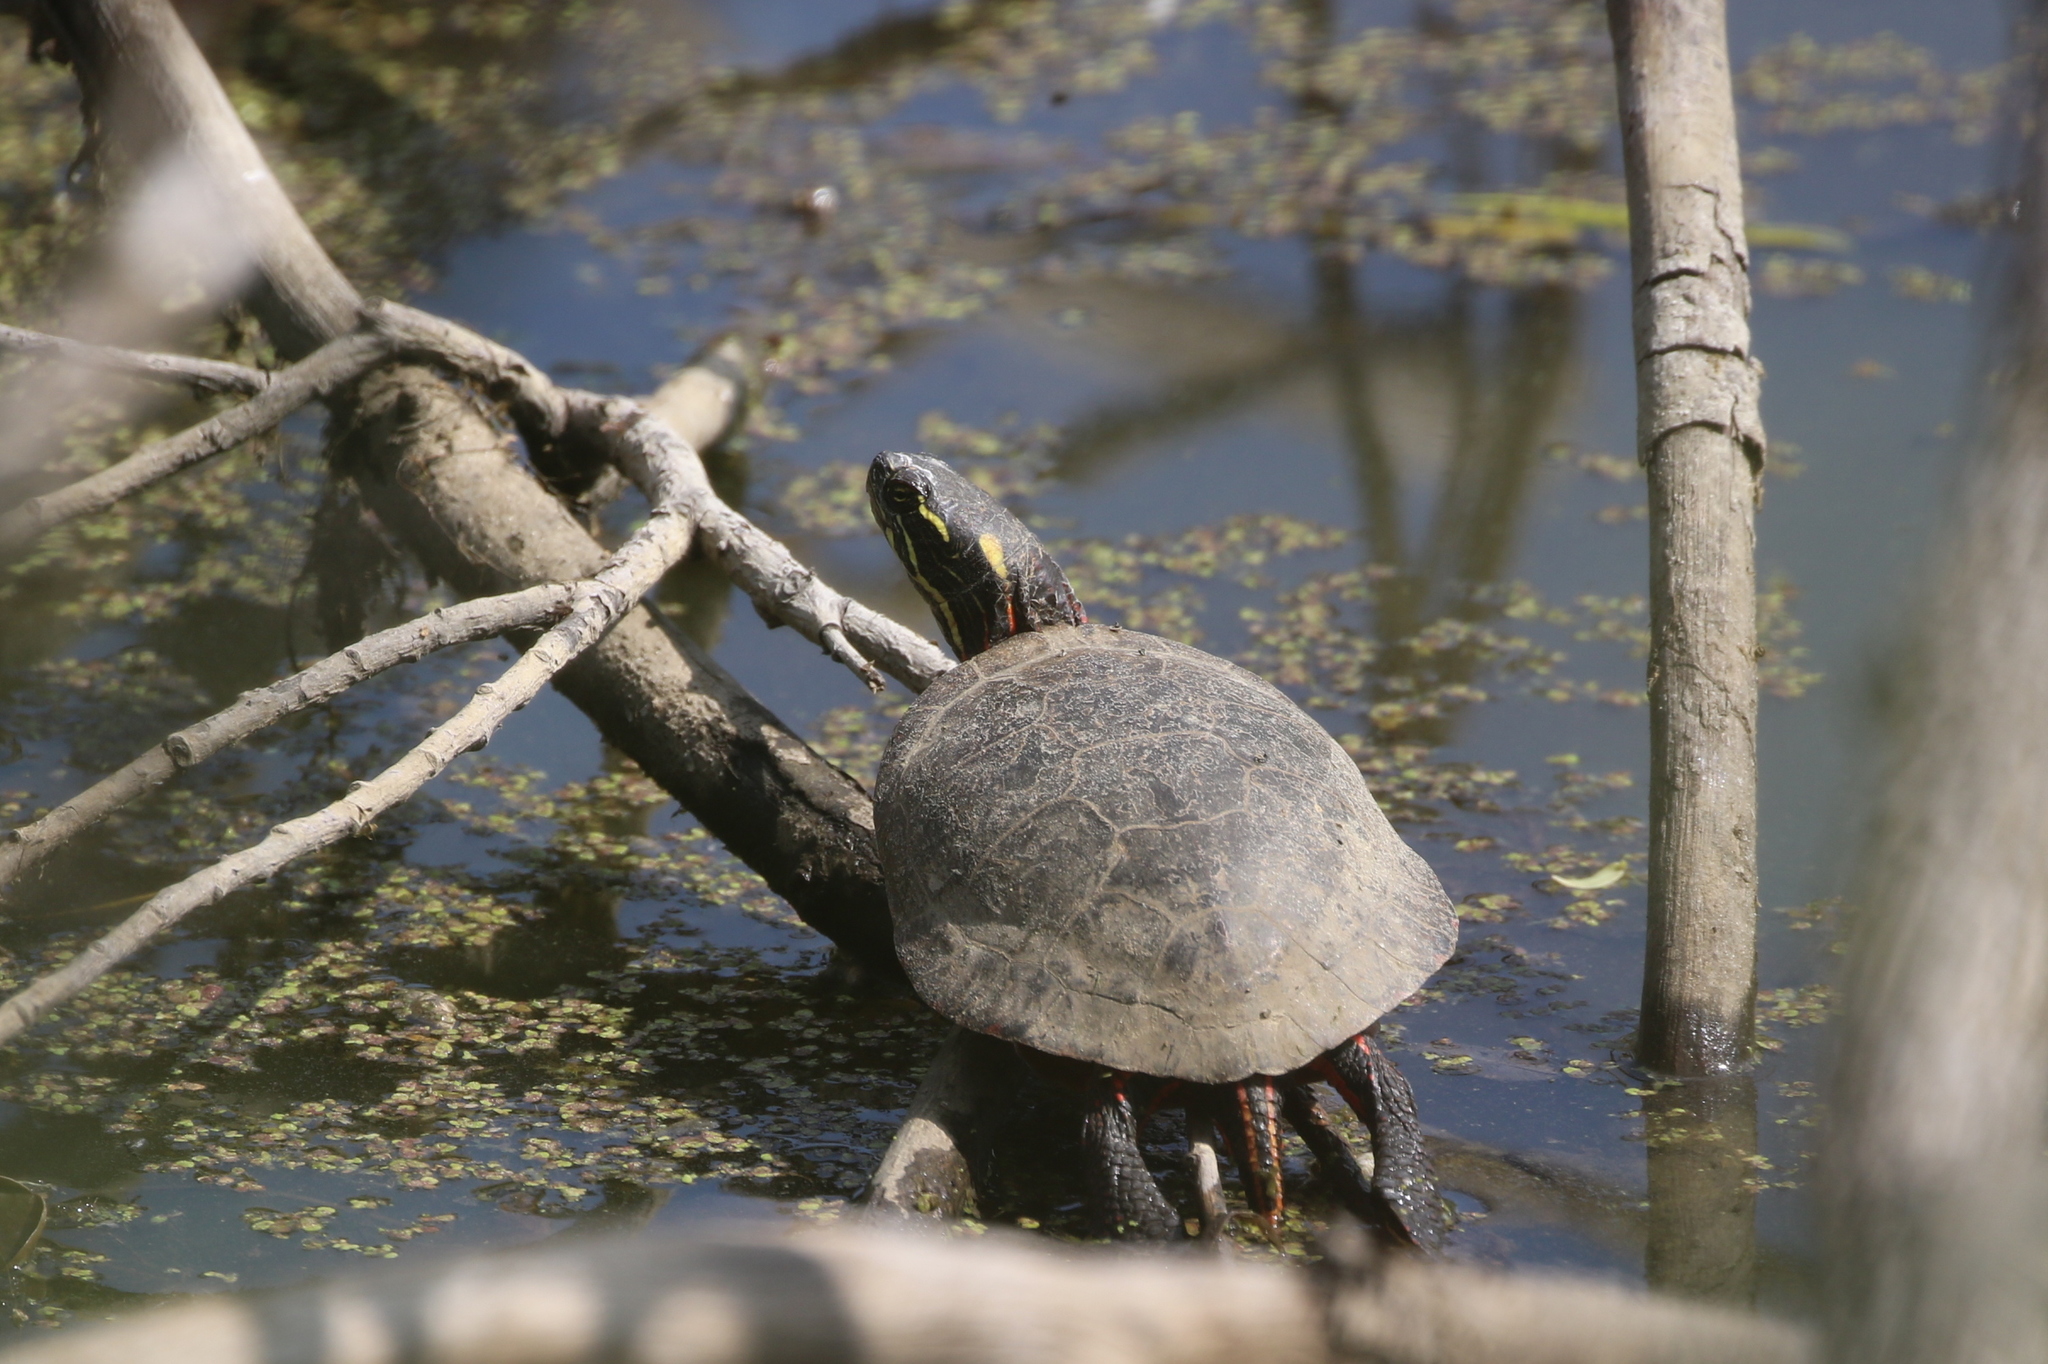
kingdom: Animalia
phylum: Chordata
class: Testudines
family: Emydidae
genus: Chrysemys
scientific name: Chrysemys picta
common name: Painted turtle
